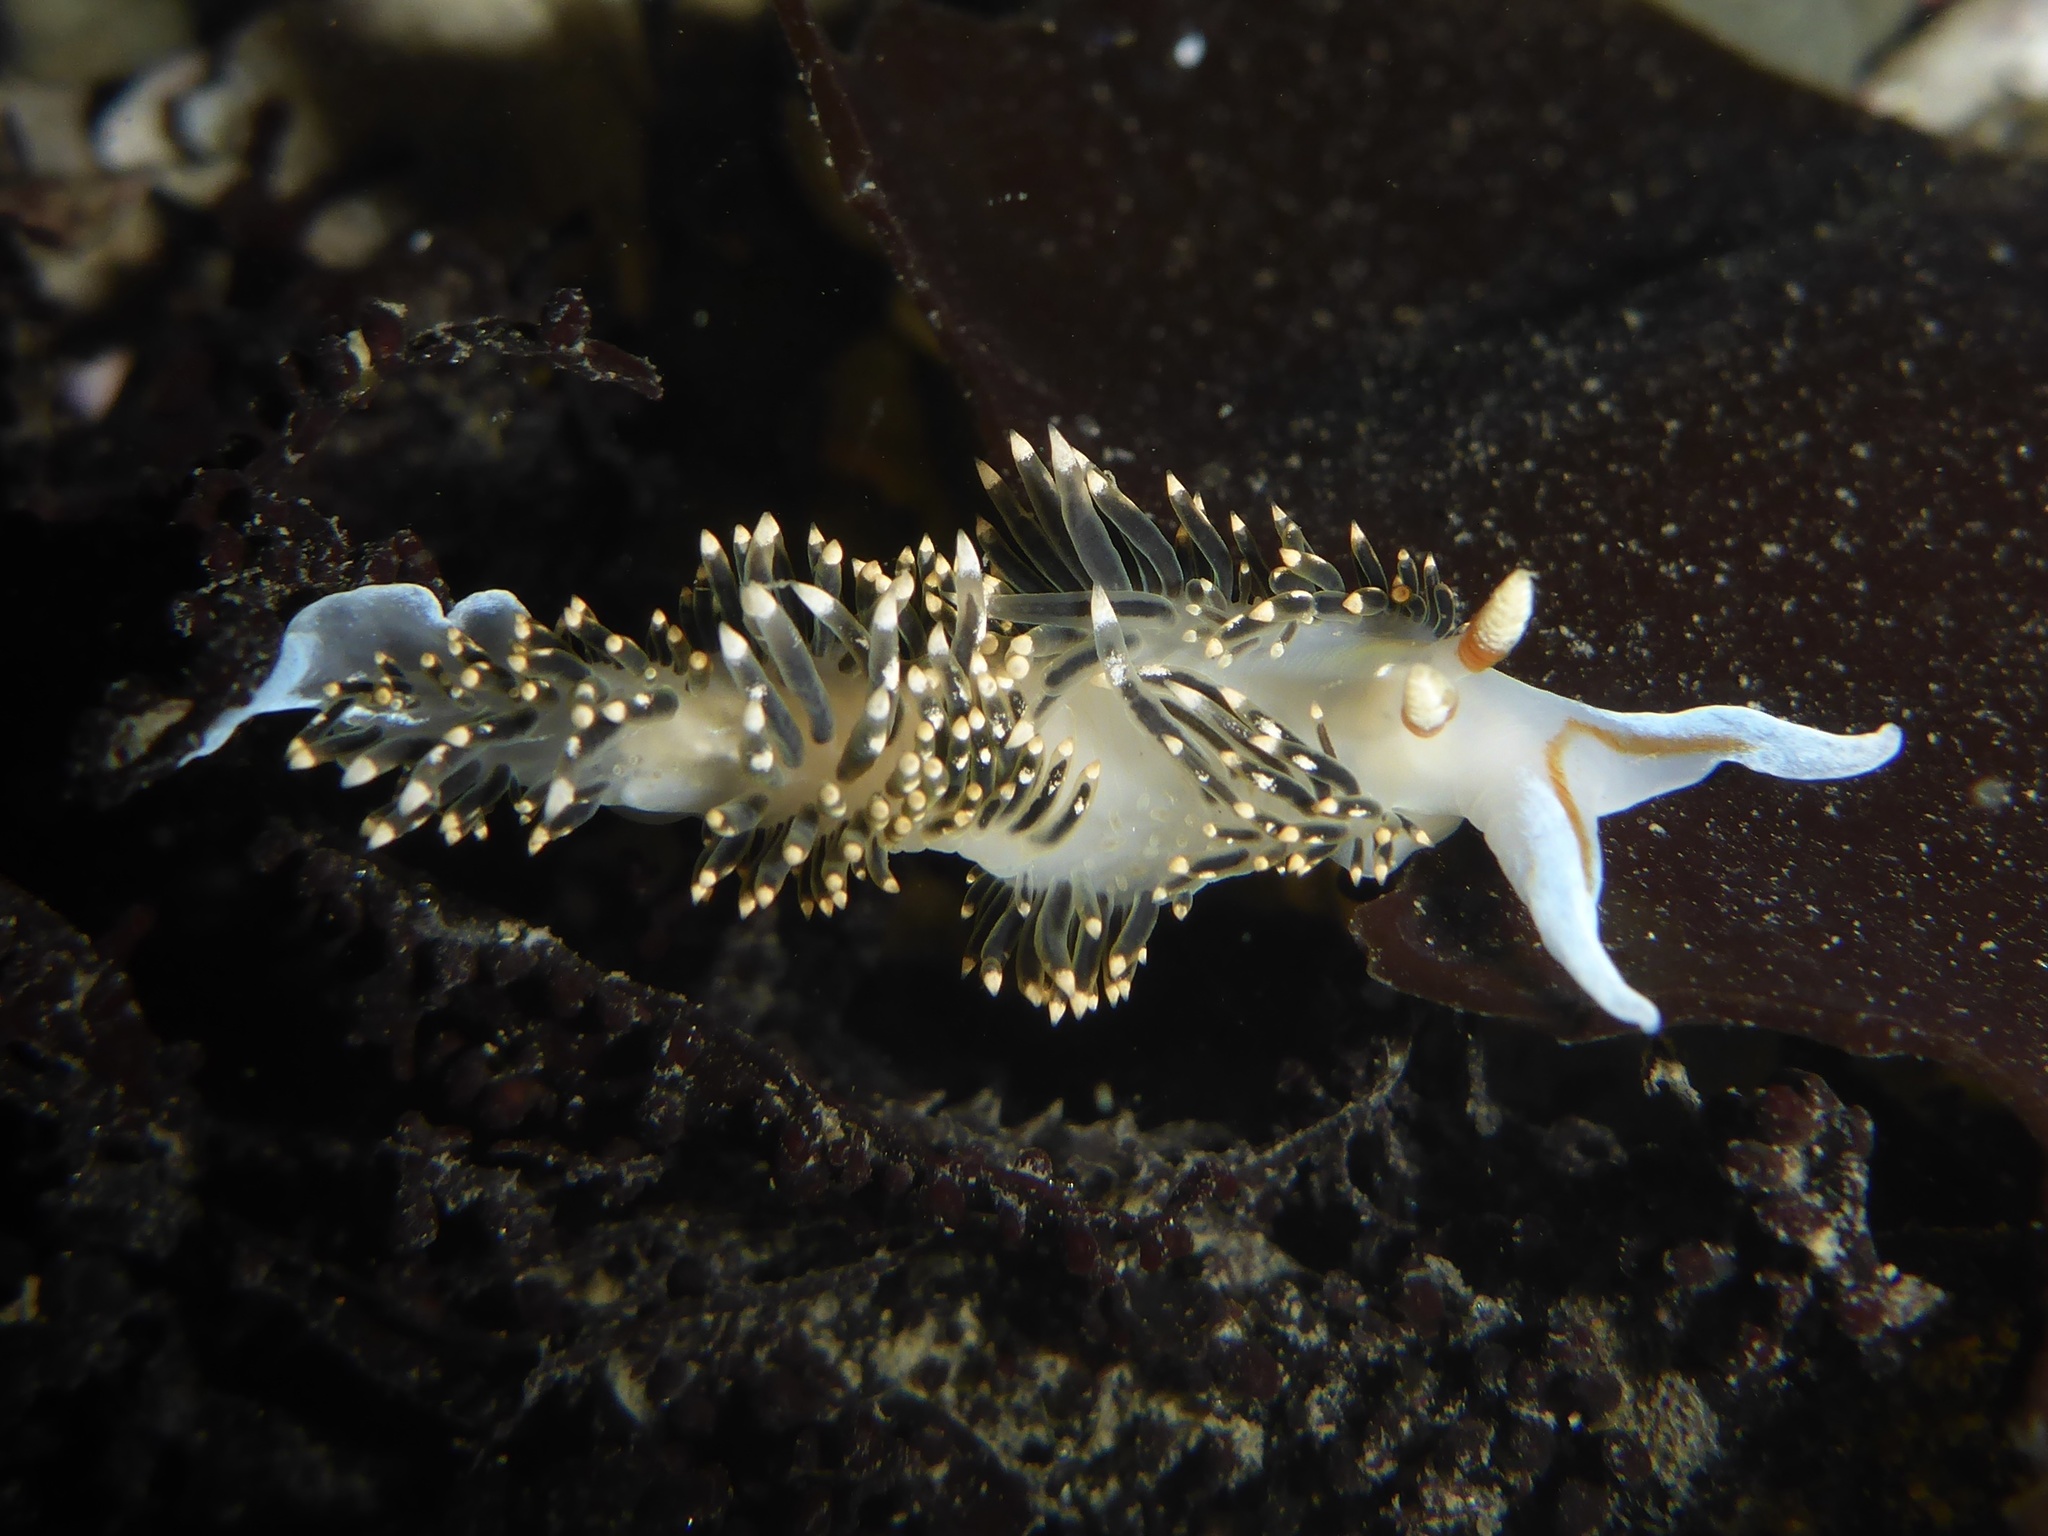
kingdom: Animalia
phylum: Mollusca
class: Gastropoda
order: Nudibranchia
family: Facelinidae
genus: Phidiana
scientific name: Phidiana hiltoni
